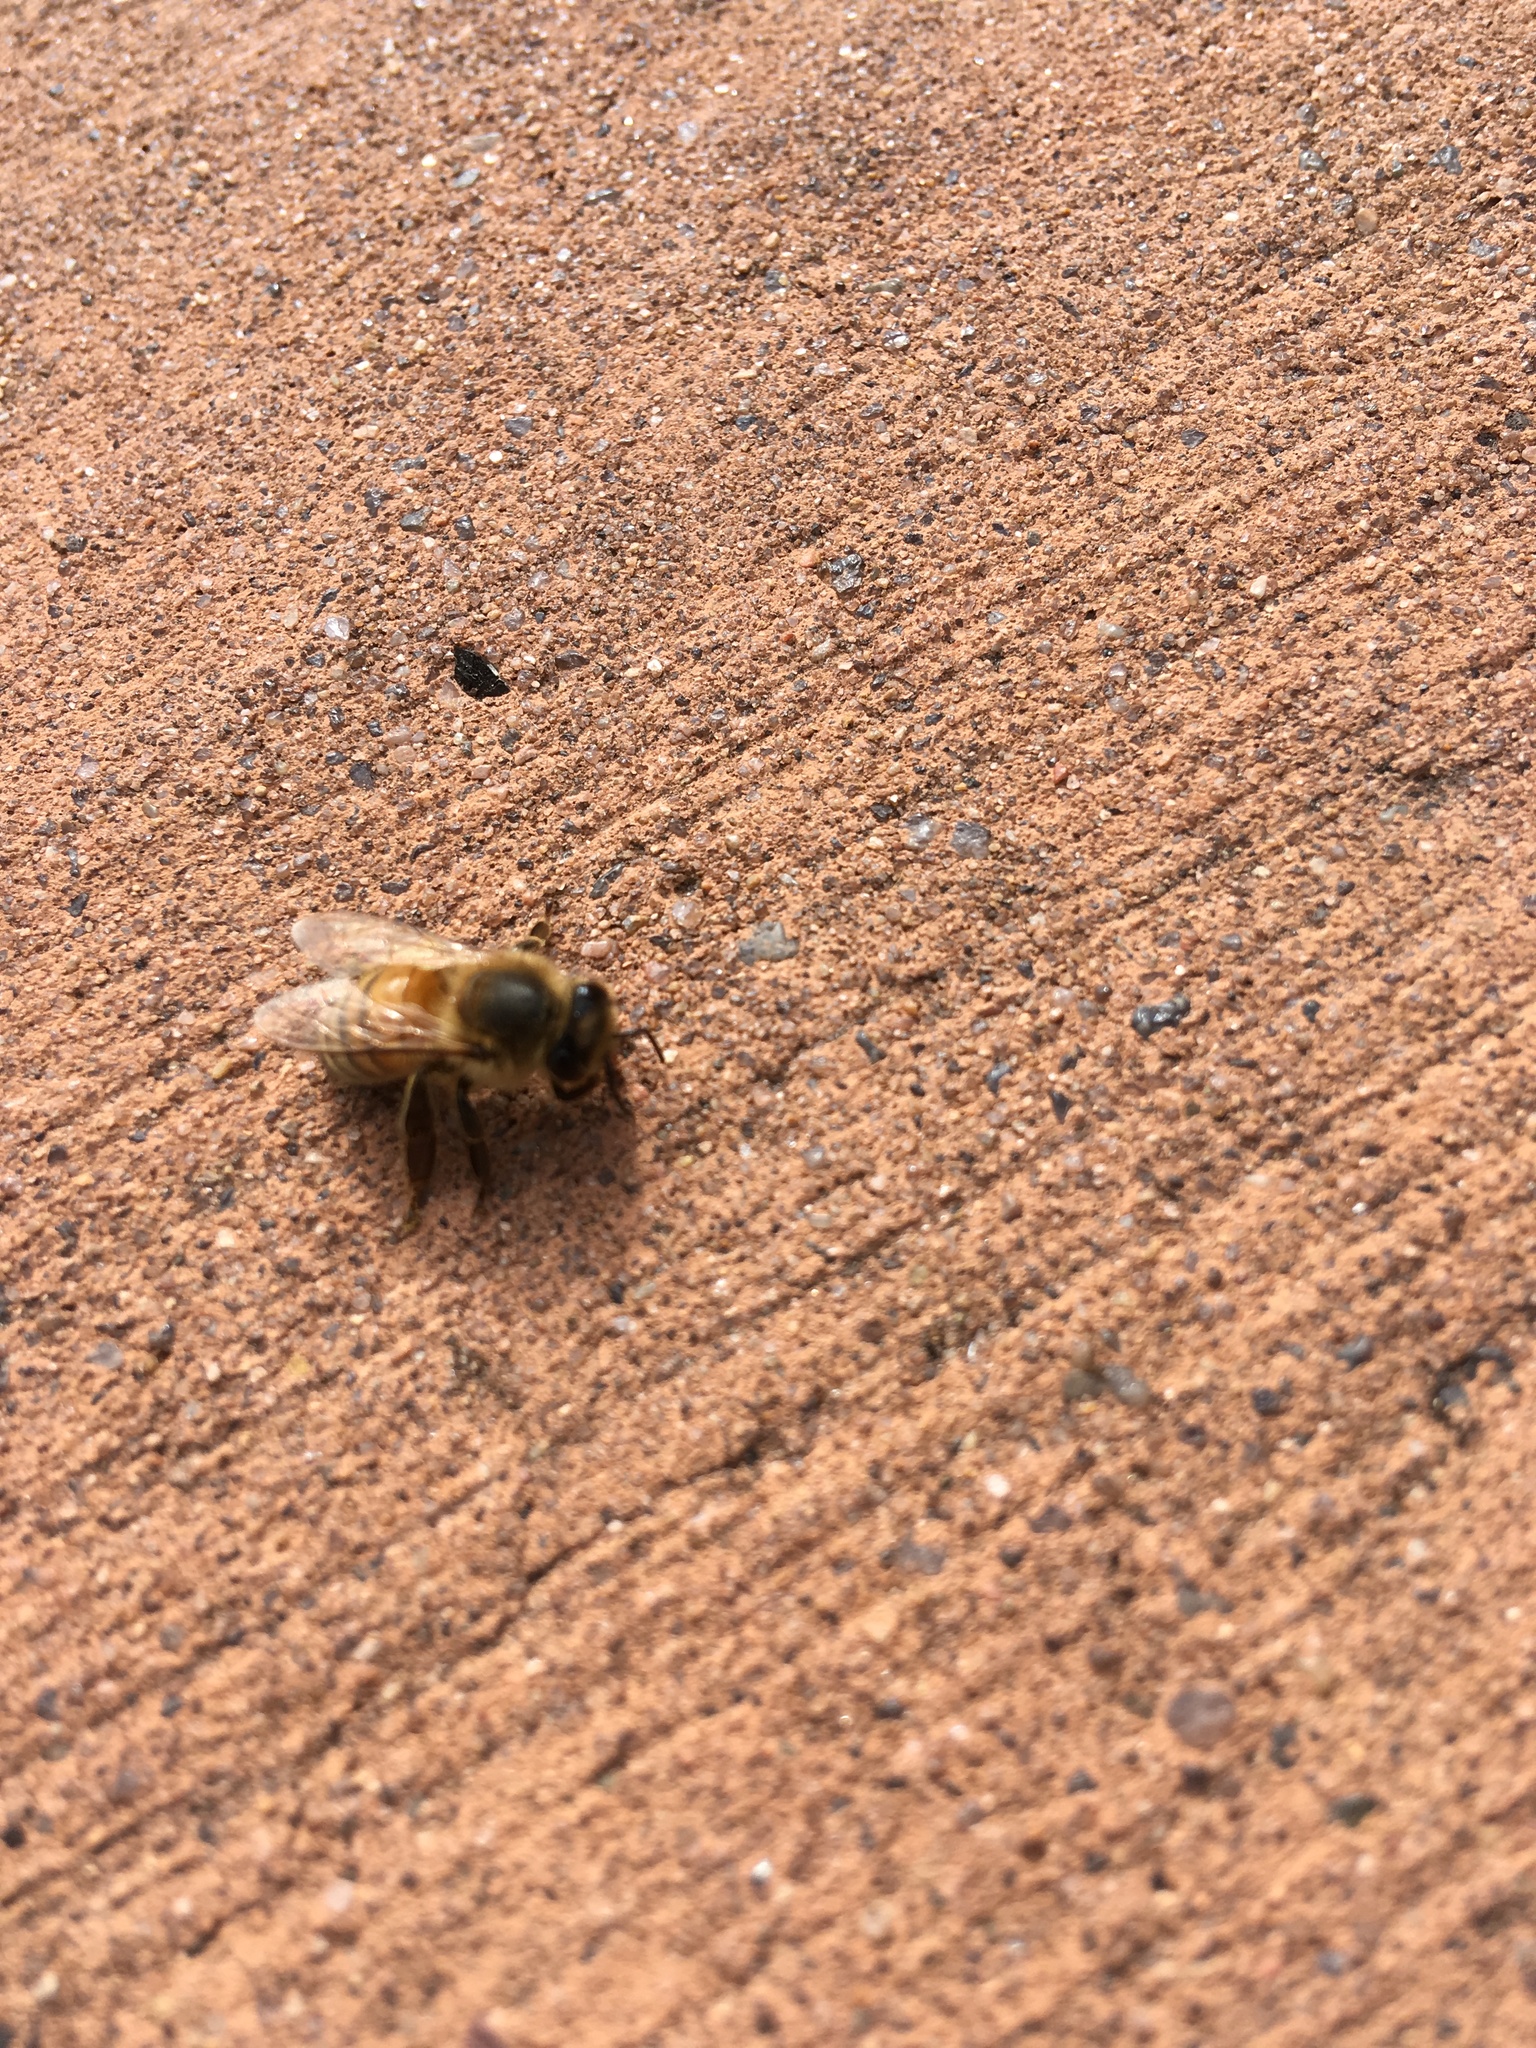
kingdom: Animalia
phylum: Arthropoda
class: Insecta
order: Hymenoptera
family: Apidae
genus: Apis
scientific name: Apis mellifera
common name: Honey bee
